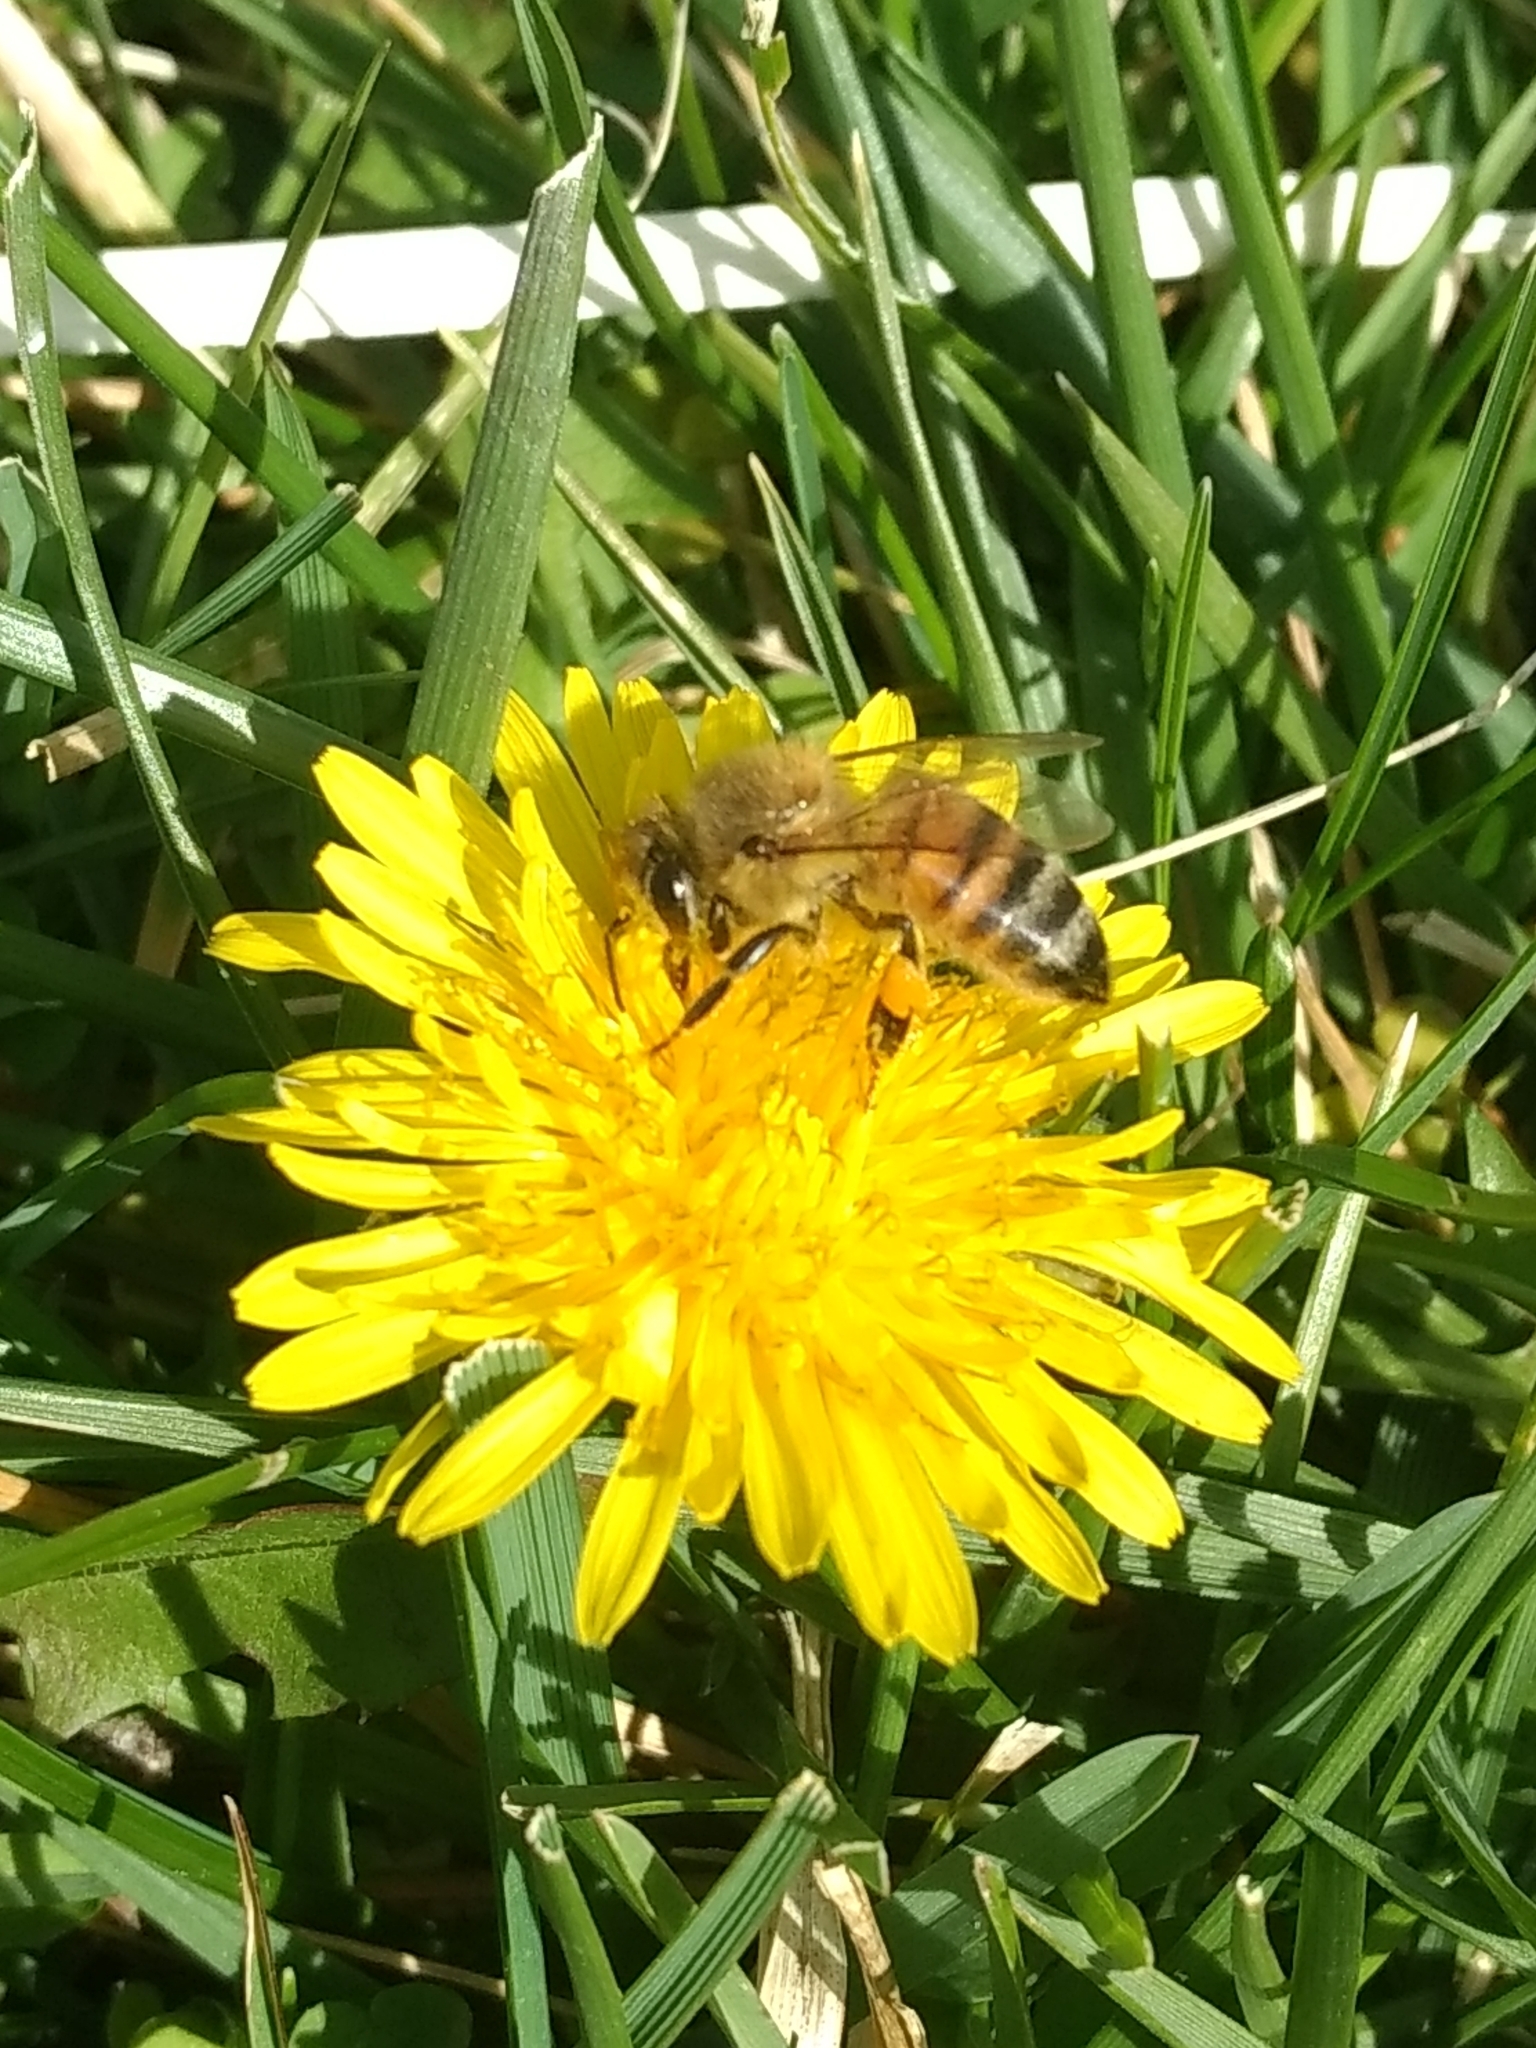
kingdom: Animalia
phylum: Arthropoda
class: Insecta
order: Hymenoptera
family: Apidae
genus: Apis
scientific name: Apis mellifera
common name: Honey bee
